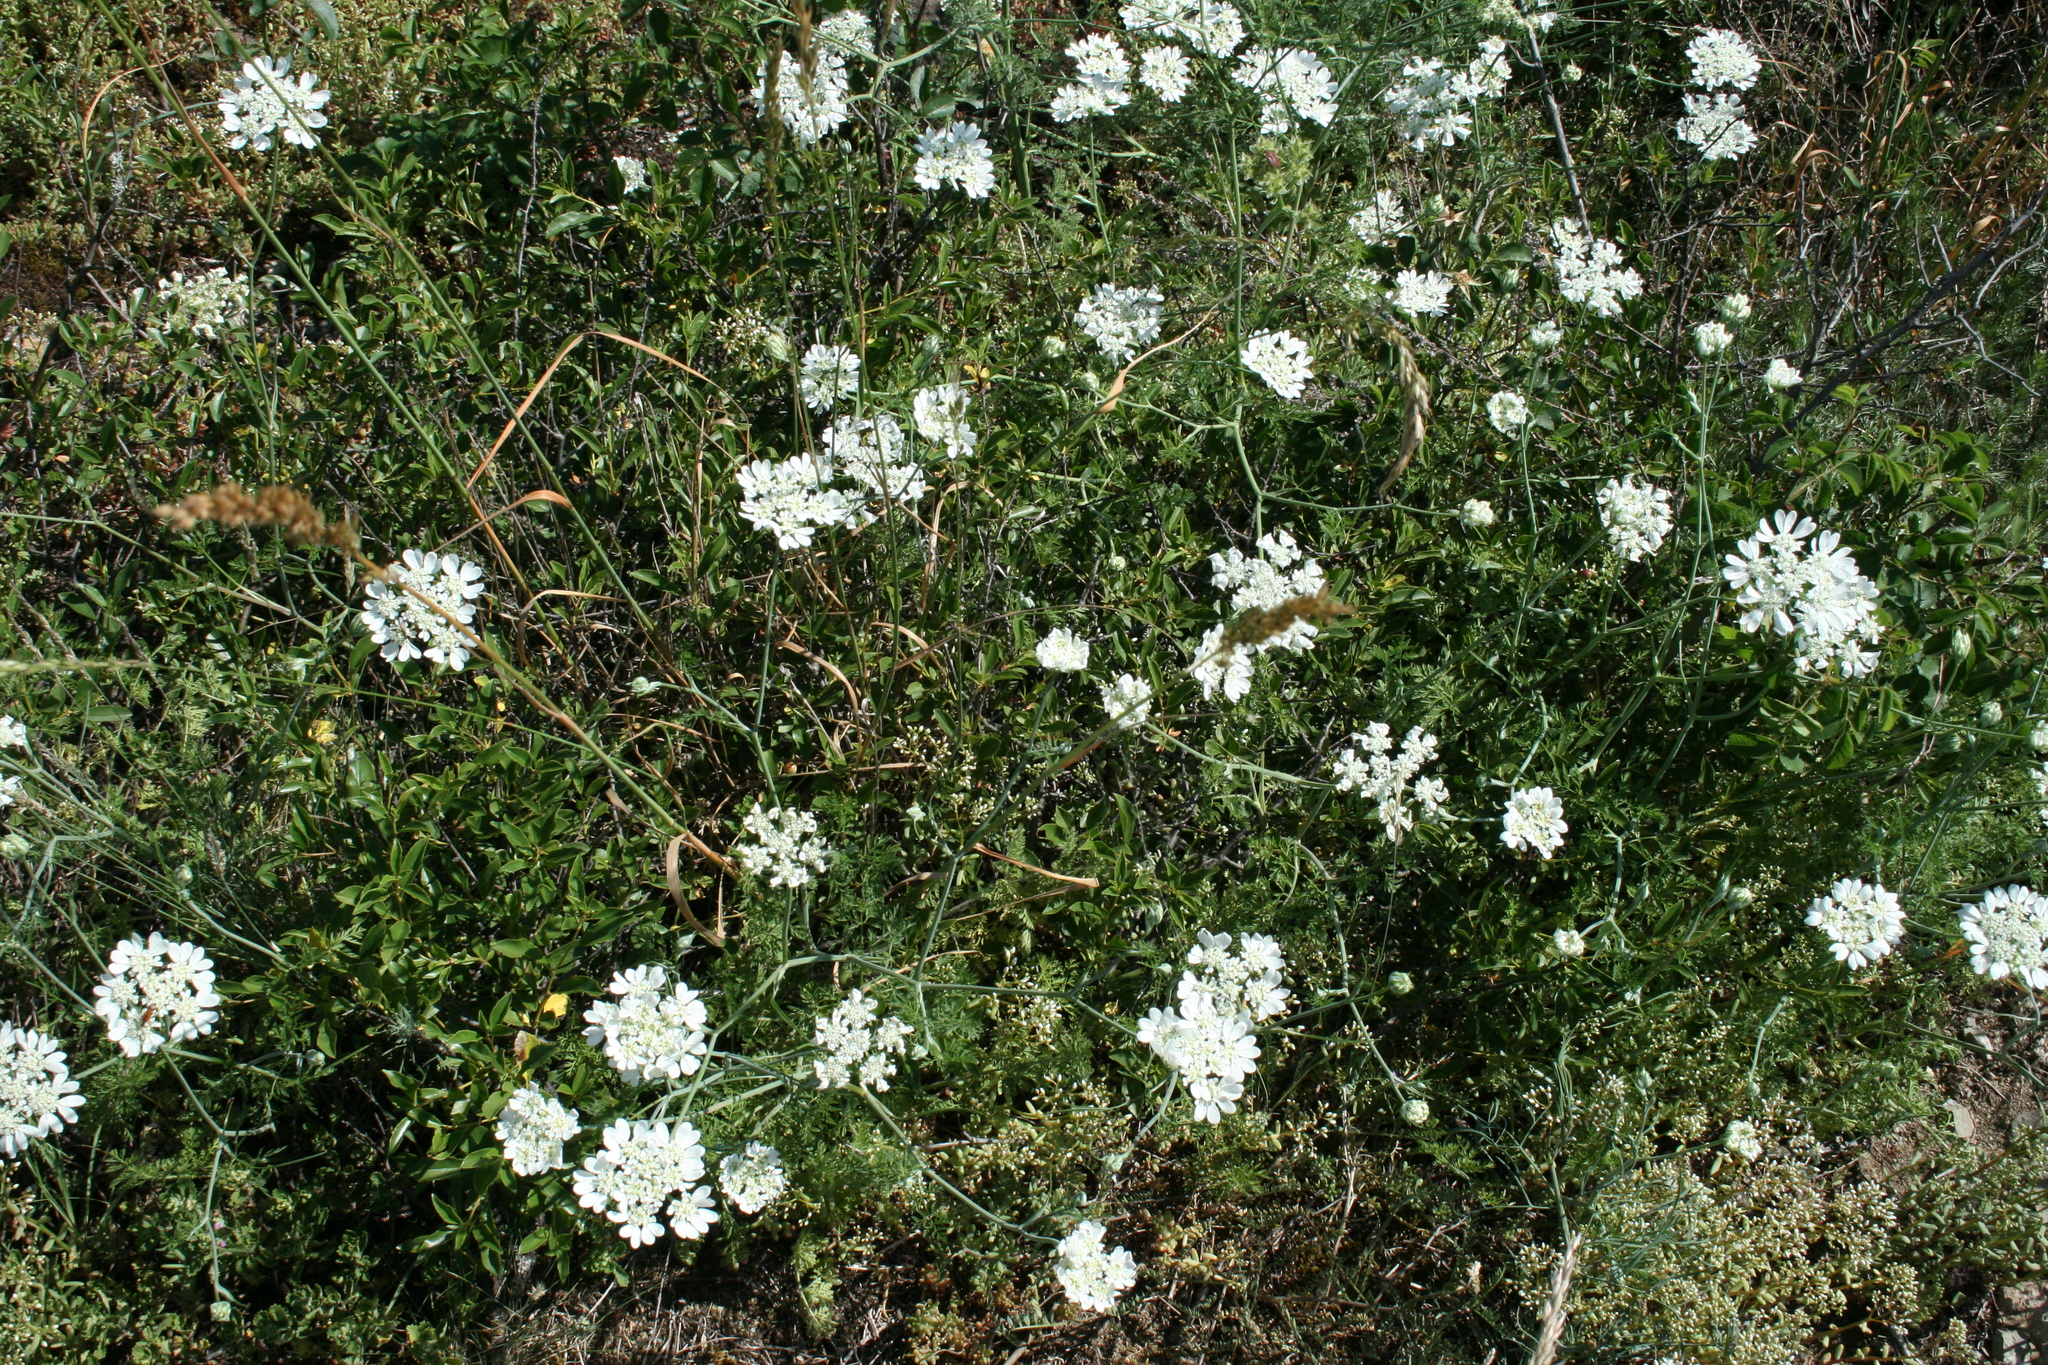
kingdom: Plantae
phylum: Tracheophyta
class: Magnoliopsida
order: Apiales
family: Apiaceae
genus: Orlaya
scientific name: Orlaya grandiflora
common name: White lace flower
